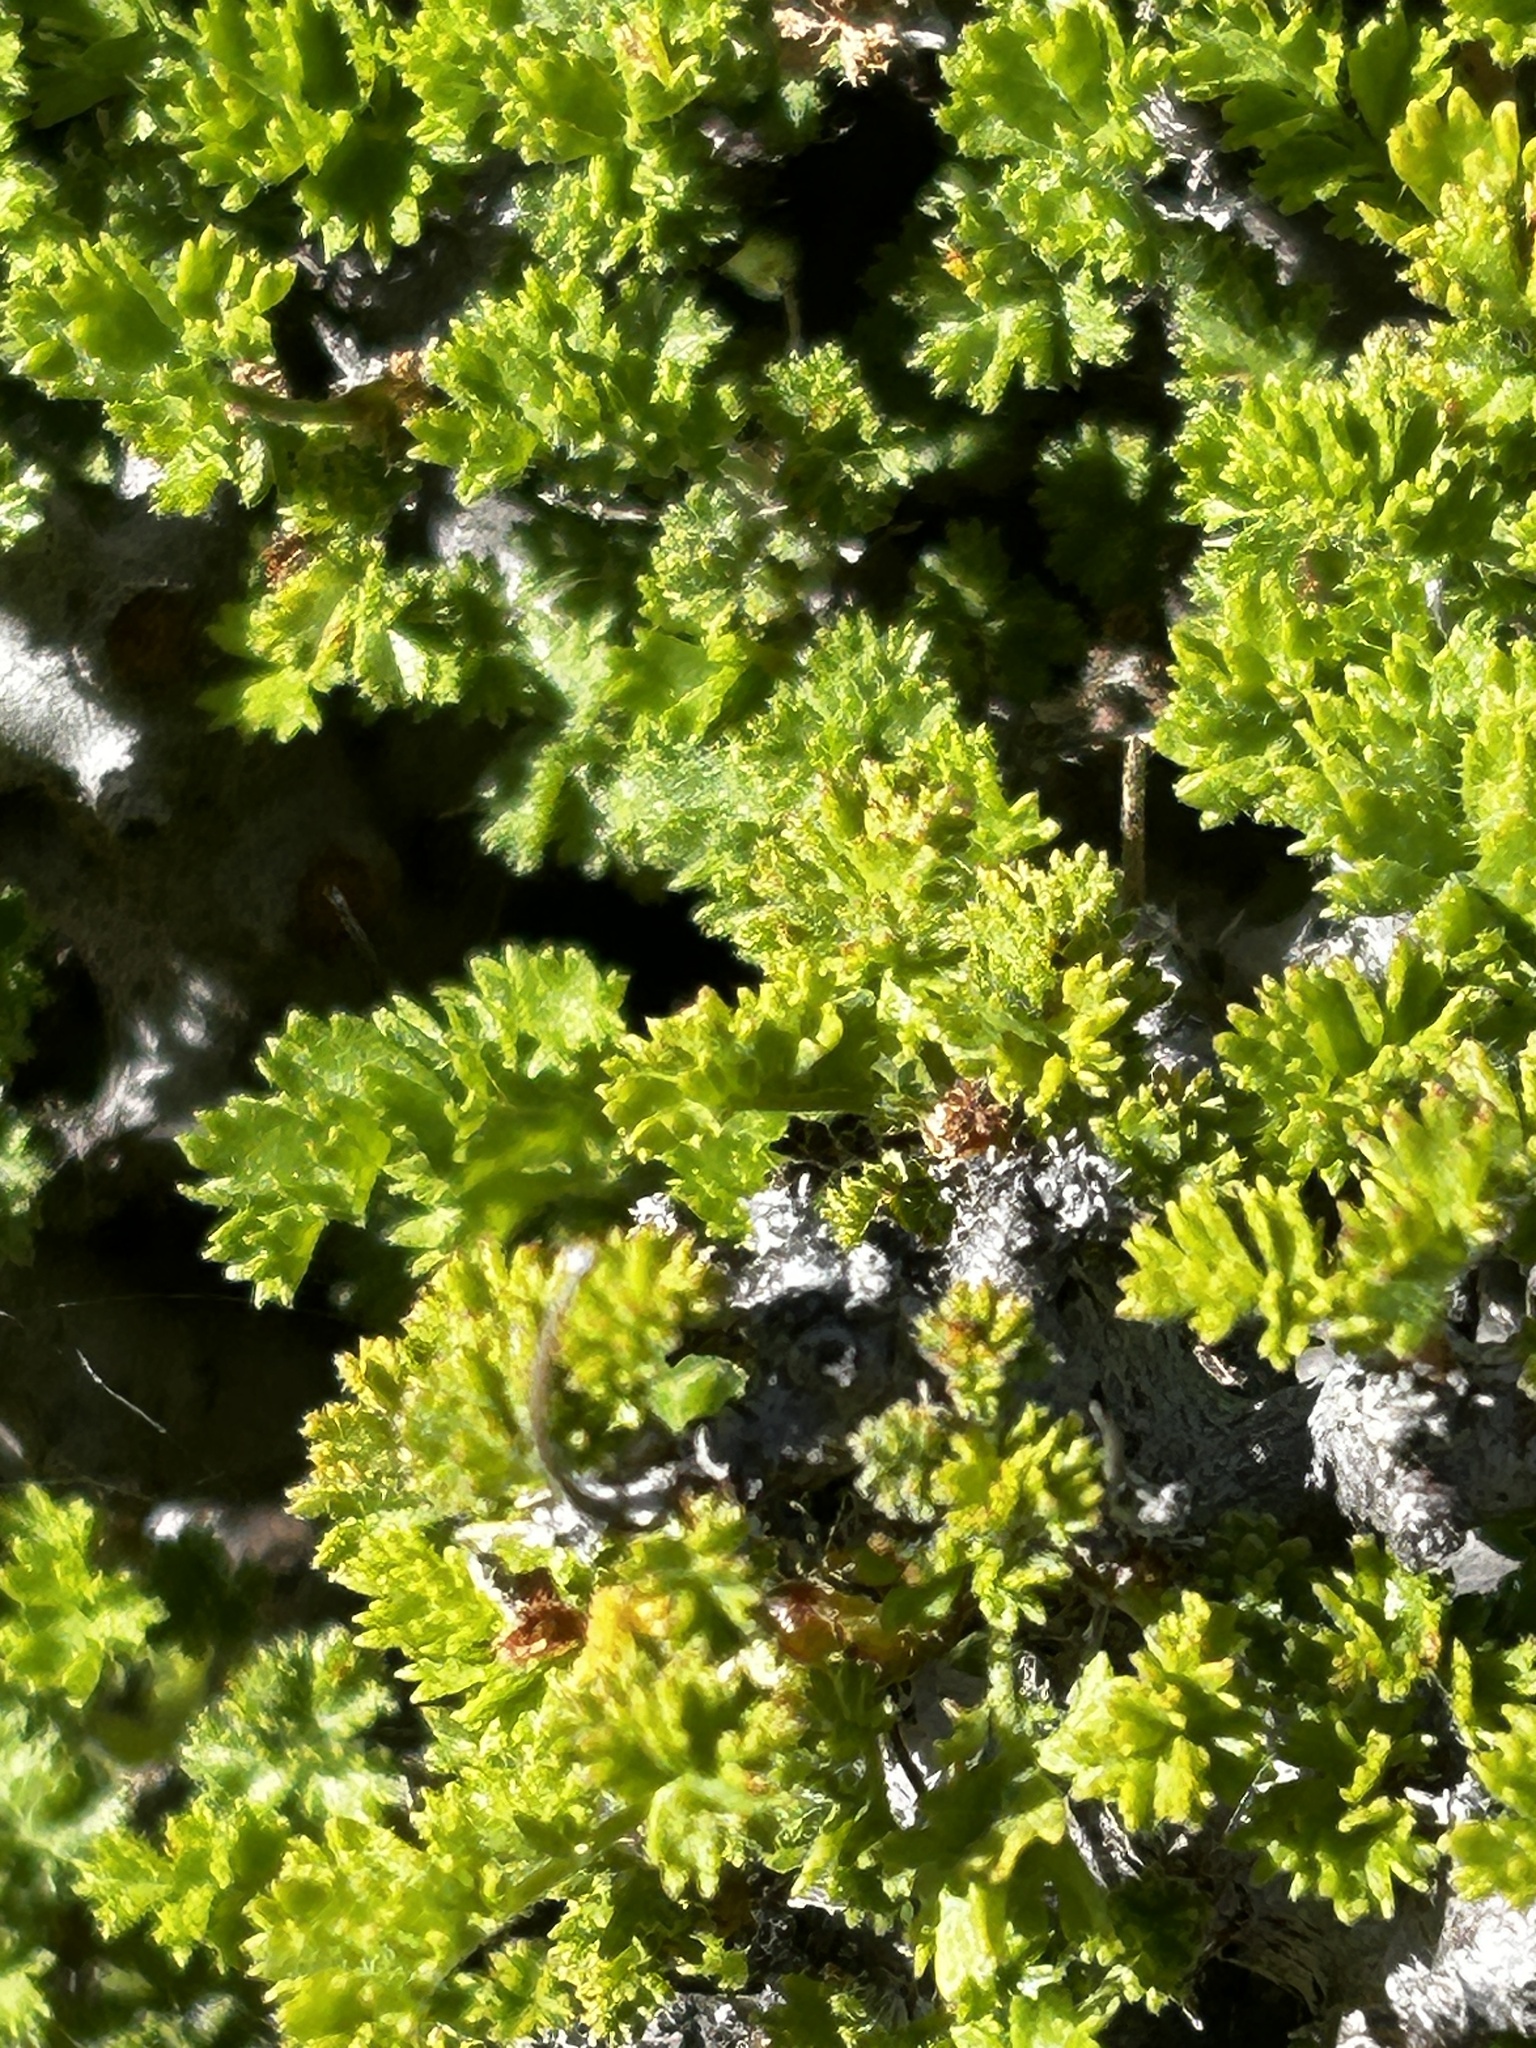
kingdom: Plantae
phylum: Tracheophyta
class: Magnoliopsida
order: Geraniales
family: Geraniaceae
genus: Pelargonium
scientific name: Pelargonium alternans
